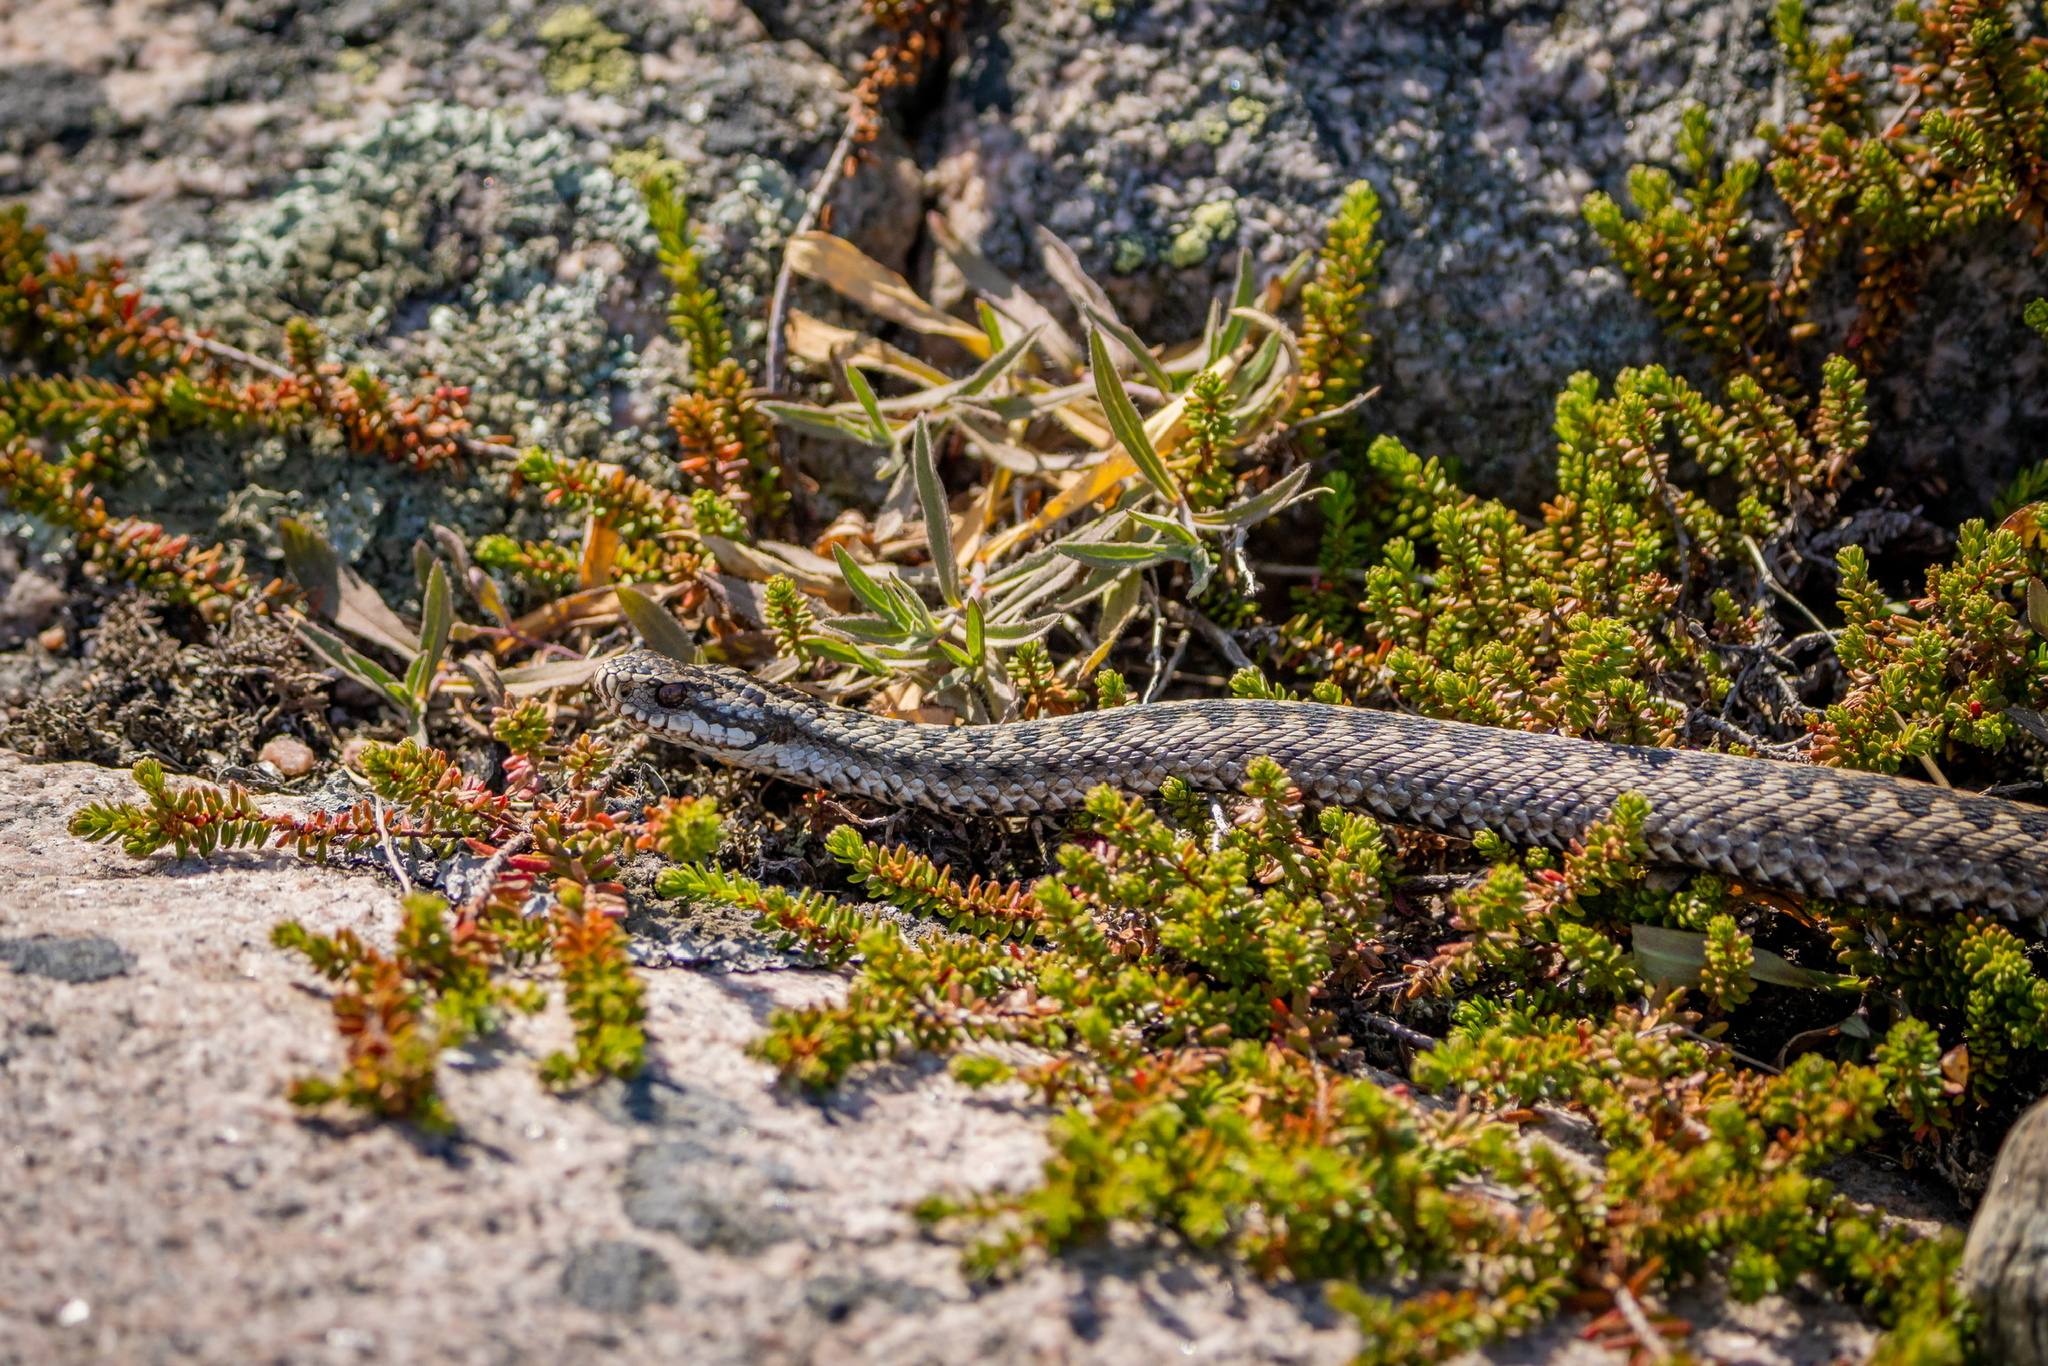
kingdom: Animalia
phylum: Chordata
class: Squamata
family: Viperidae
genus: Vipera
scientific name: Vipera berus
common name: Adder
